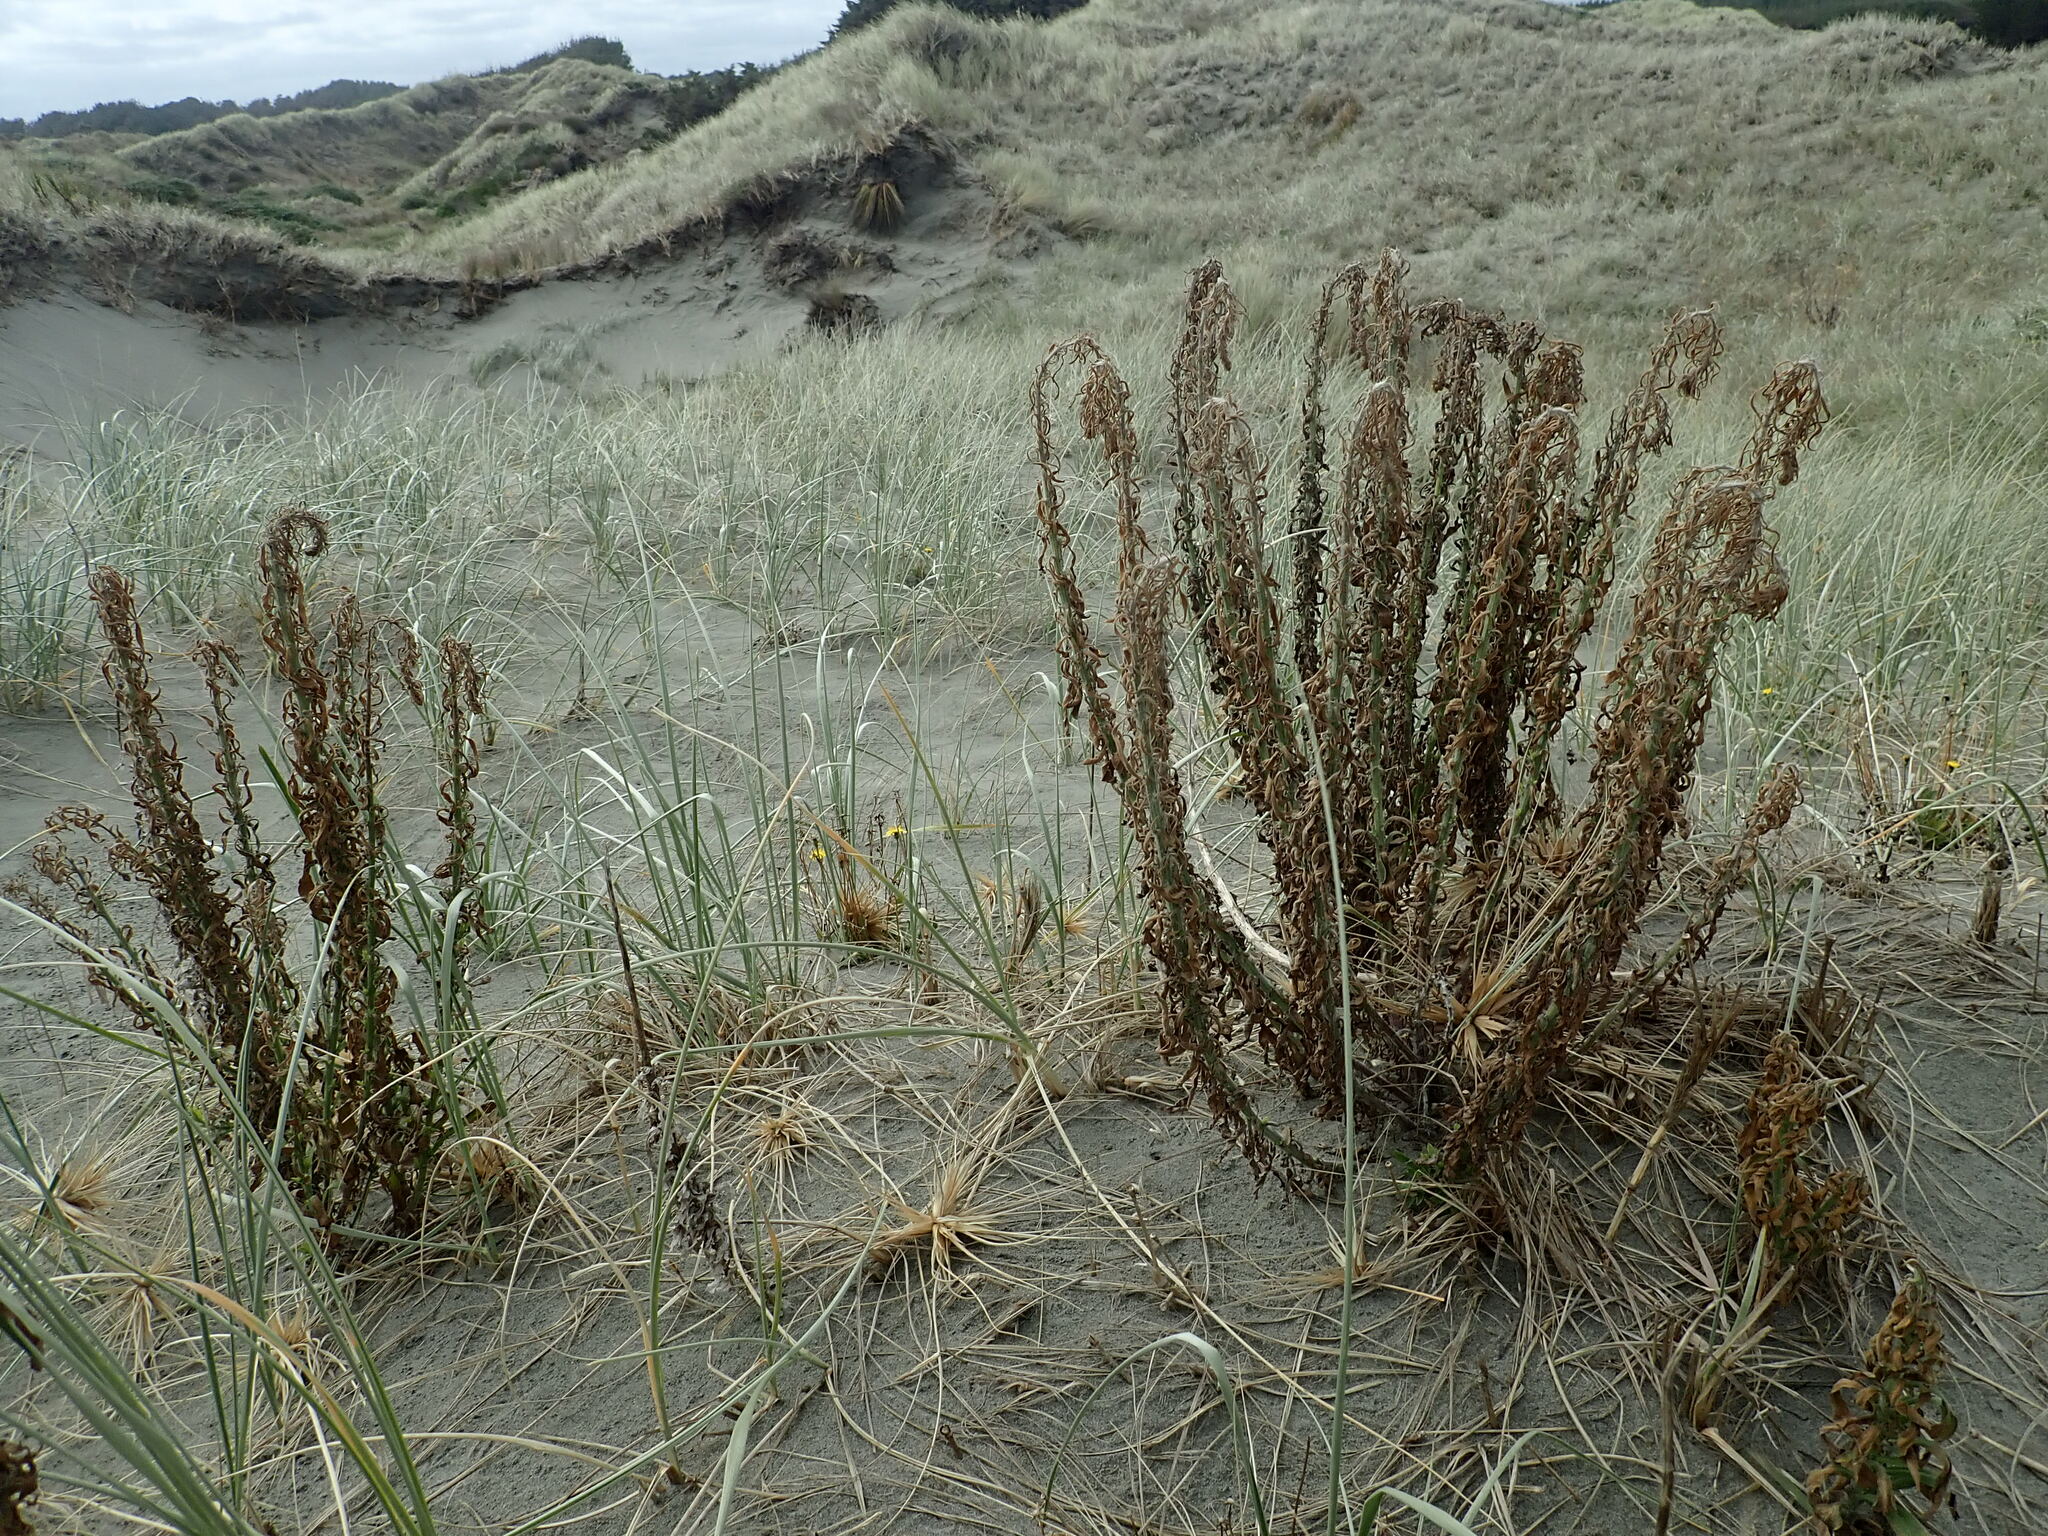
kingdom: Plantae
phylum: Tracheophyta
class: Magnoliopsida
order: Asterales
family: Asteraceae
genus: Erigeron
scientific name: Erigeron sumatrensis
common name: Daisy
